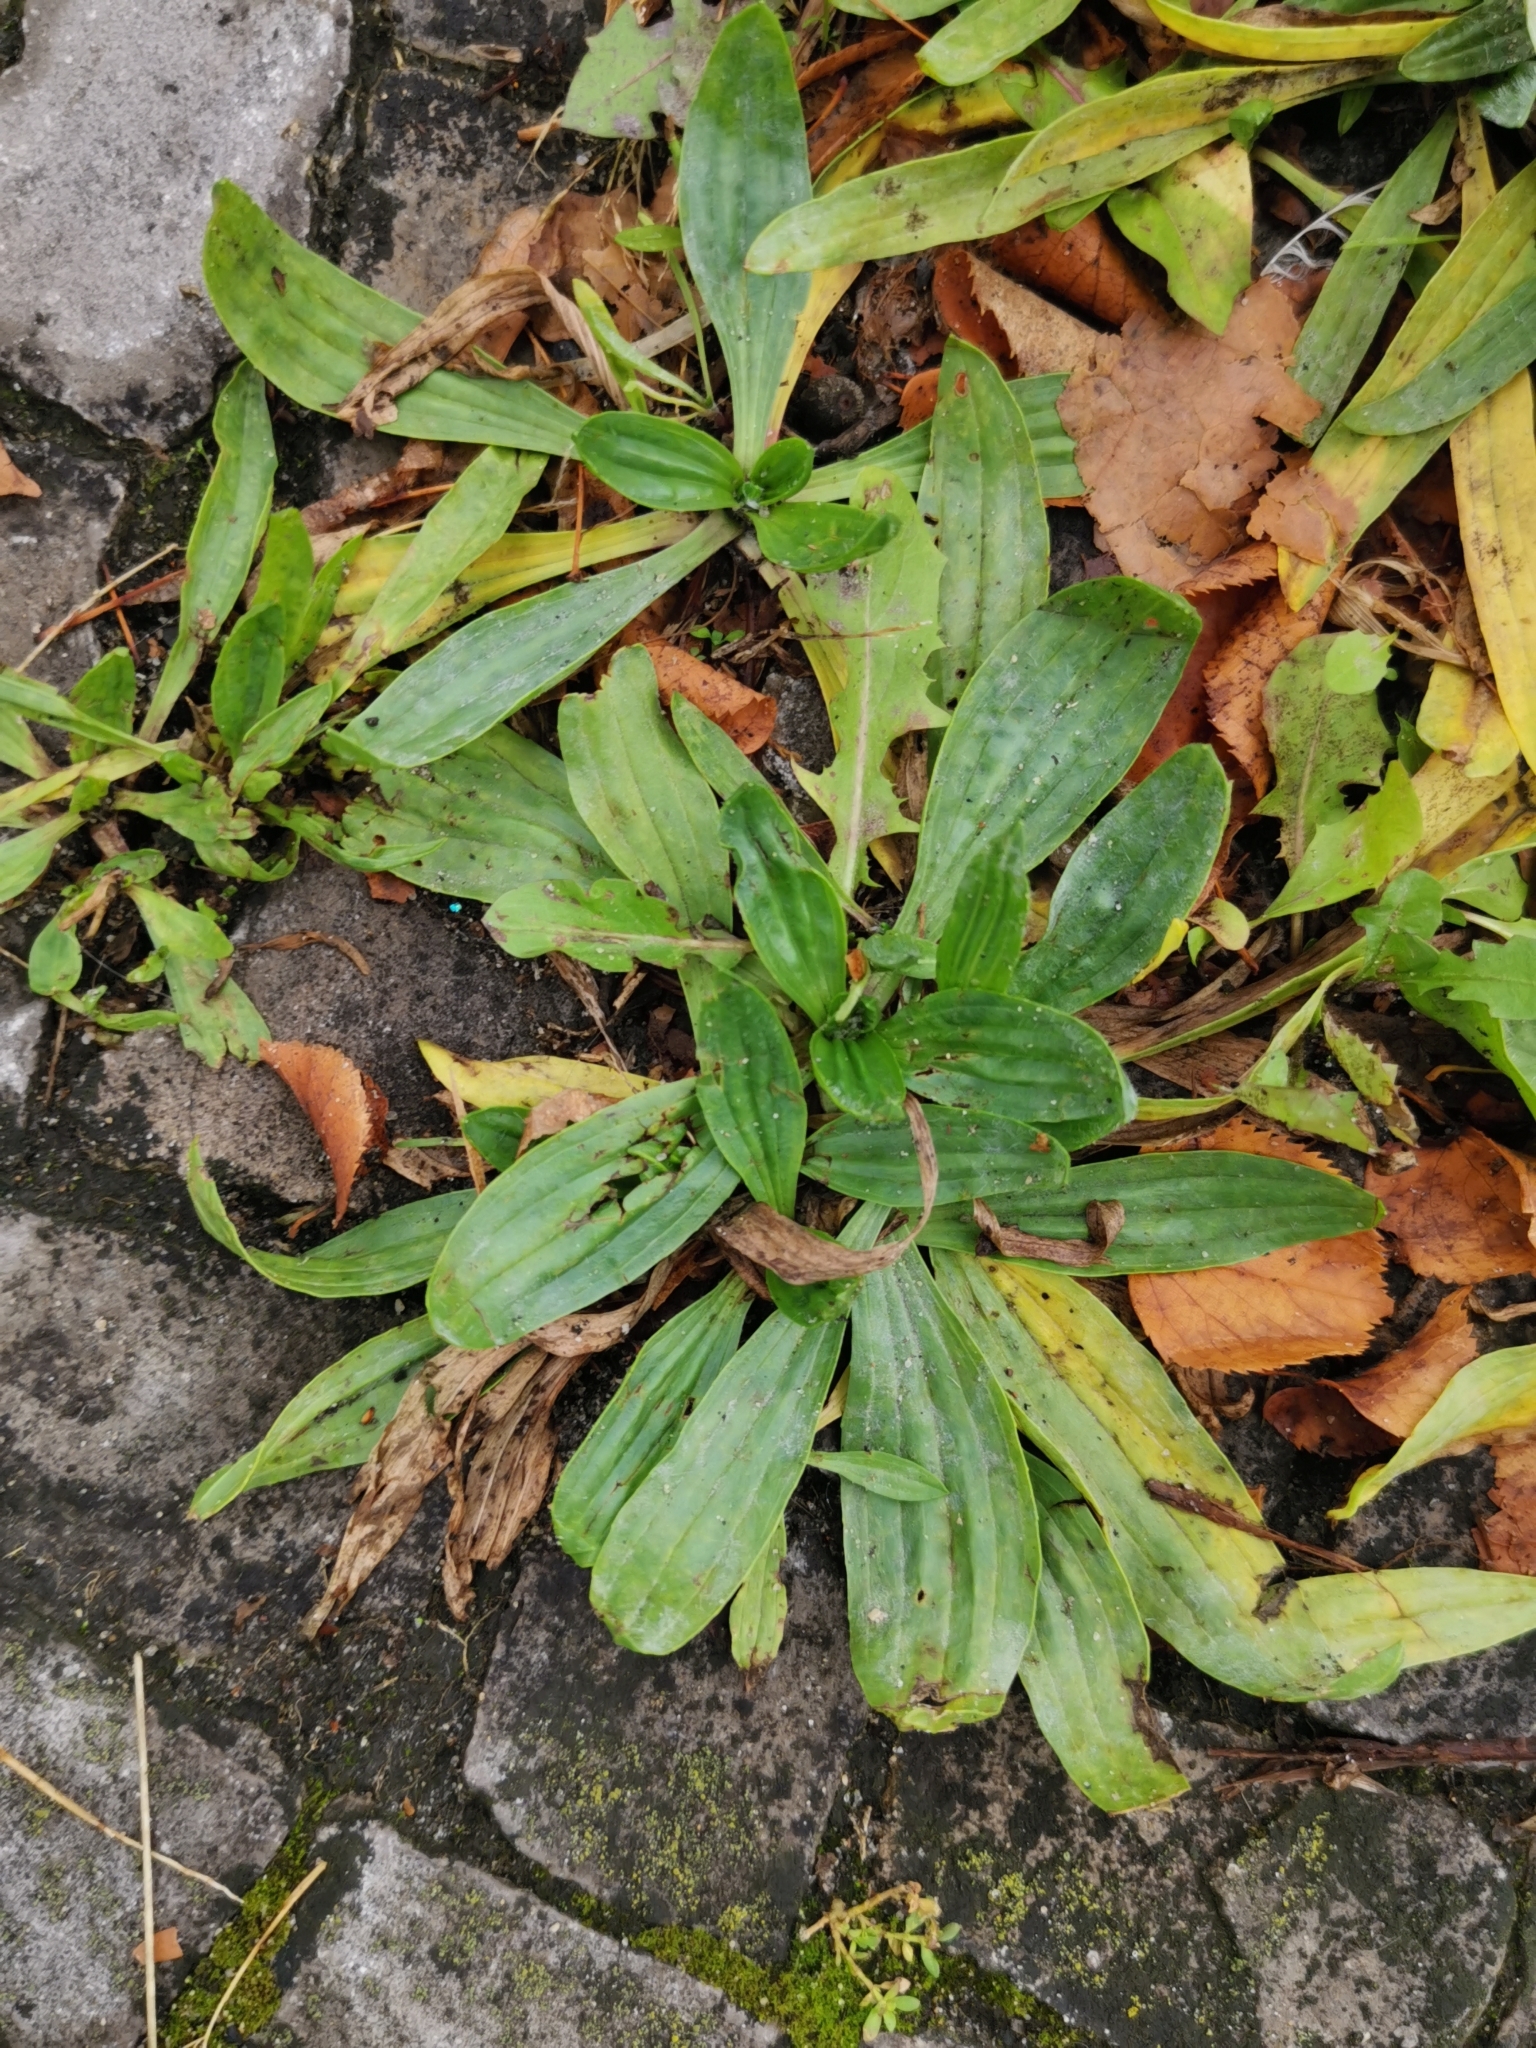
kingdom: Plantae
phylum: Tracheophyta
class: Magnoliopsida
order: Lamiales
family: Plantaginaceae
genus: Plantago
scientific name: Plantago lanceolata
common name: Ribwort plantain
